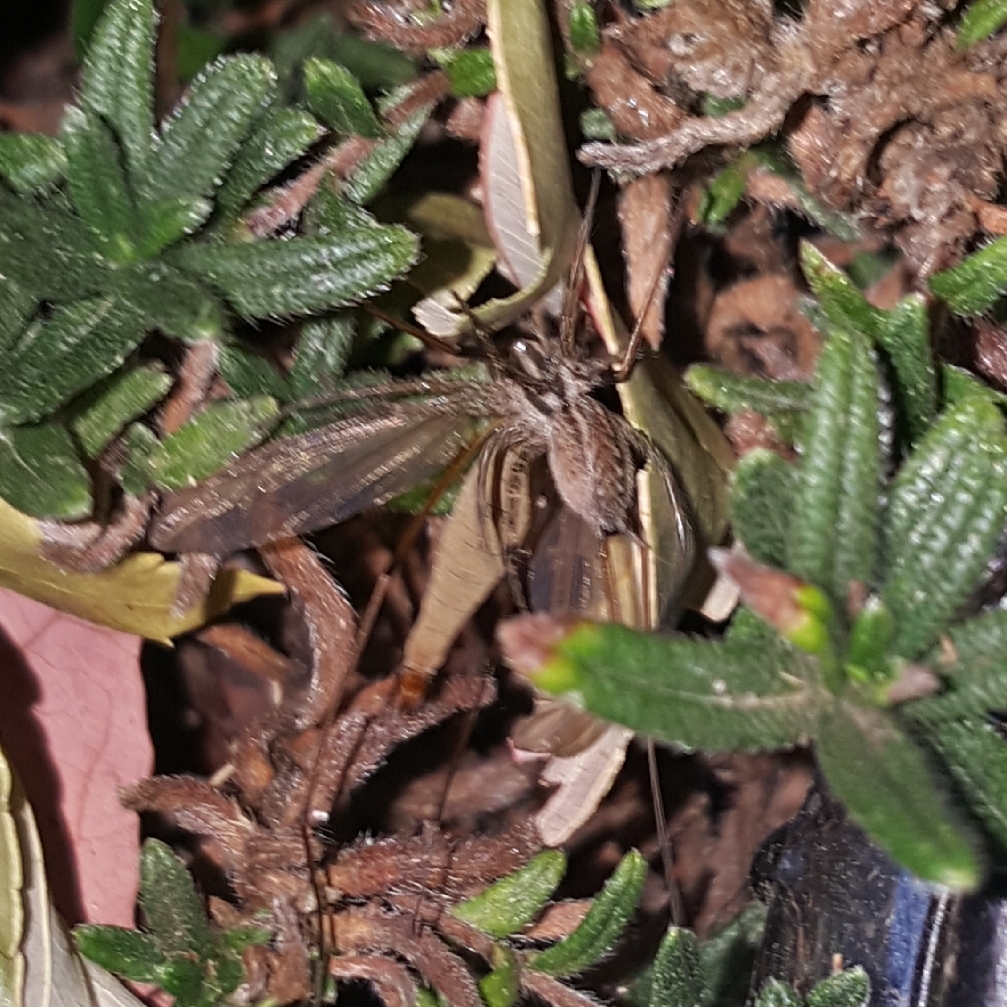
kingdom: Animalia
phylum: Arthropoda
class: Arachnida
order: Araneae
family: Agelenidae
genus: Agelenopsis
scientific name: Agelenopsis
